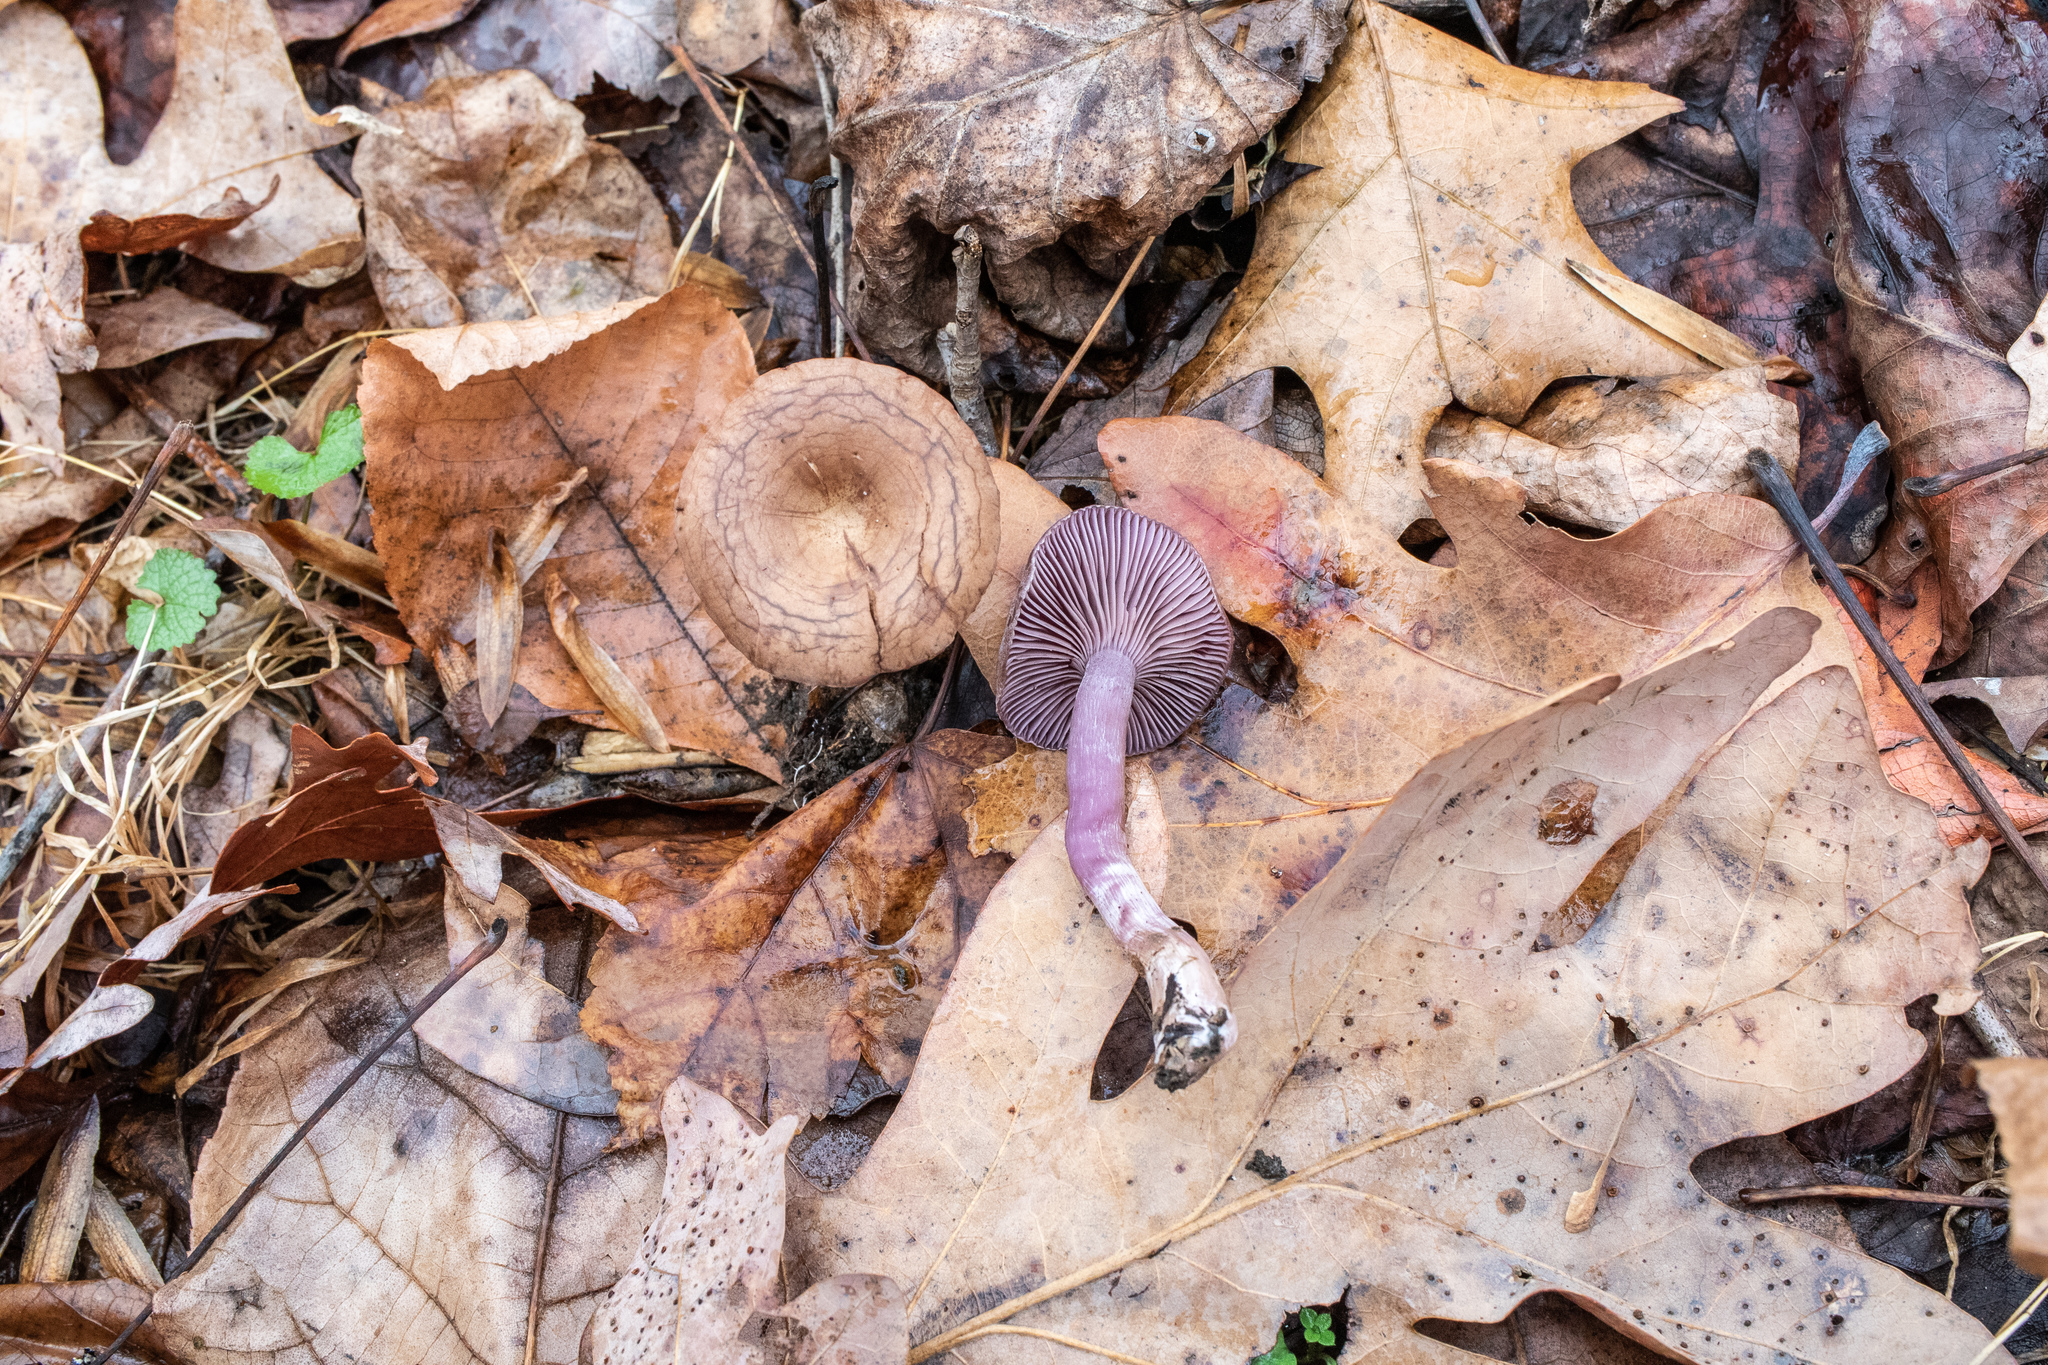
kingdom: Fungi
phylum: Basidiomycota
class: Agaricomycetes
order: Agaricales
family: Tricholomataceae
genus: Pseudoomphalina
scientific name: Pseudoomphalina cokeri
